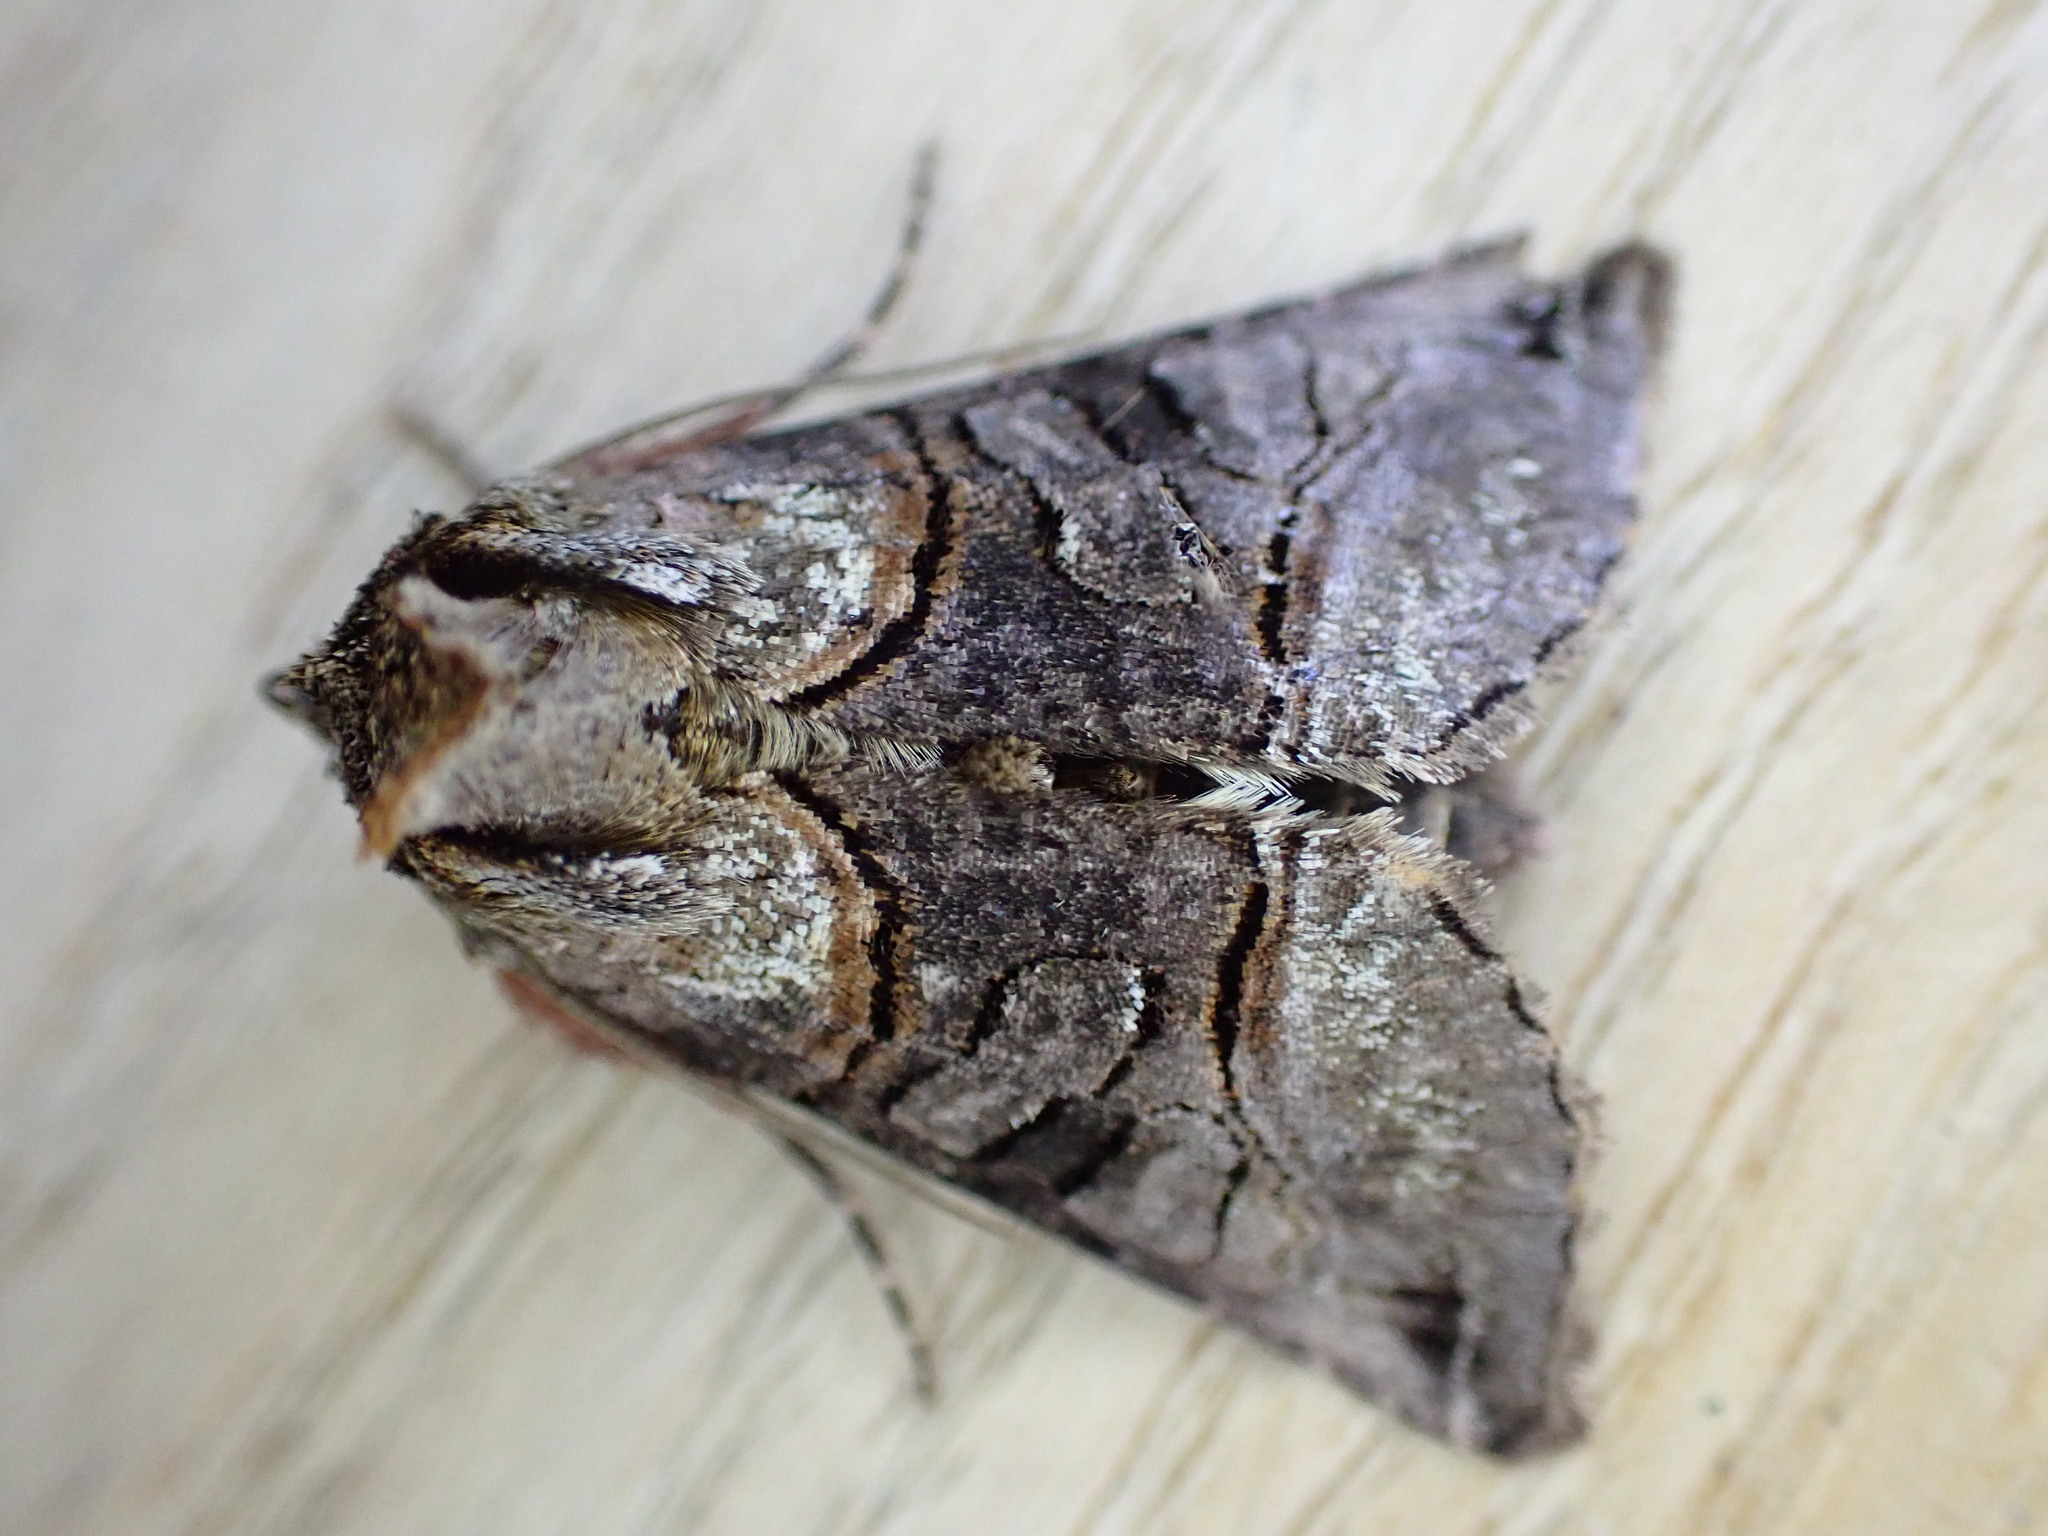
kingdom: Animalia
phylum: Arthropoda
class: Insecta
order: Lepidoptera
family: Noctuidae
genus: Abrostola
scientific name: Abrostola tripartita
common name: Spectacle
